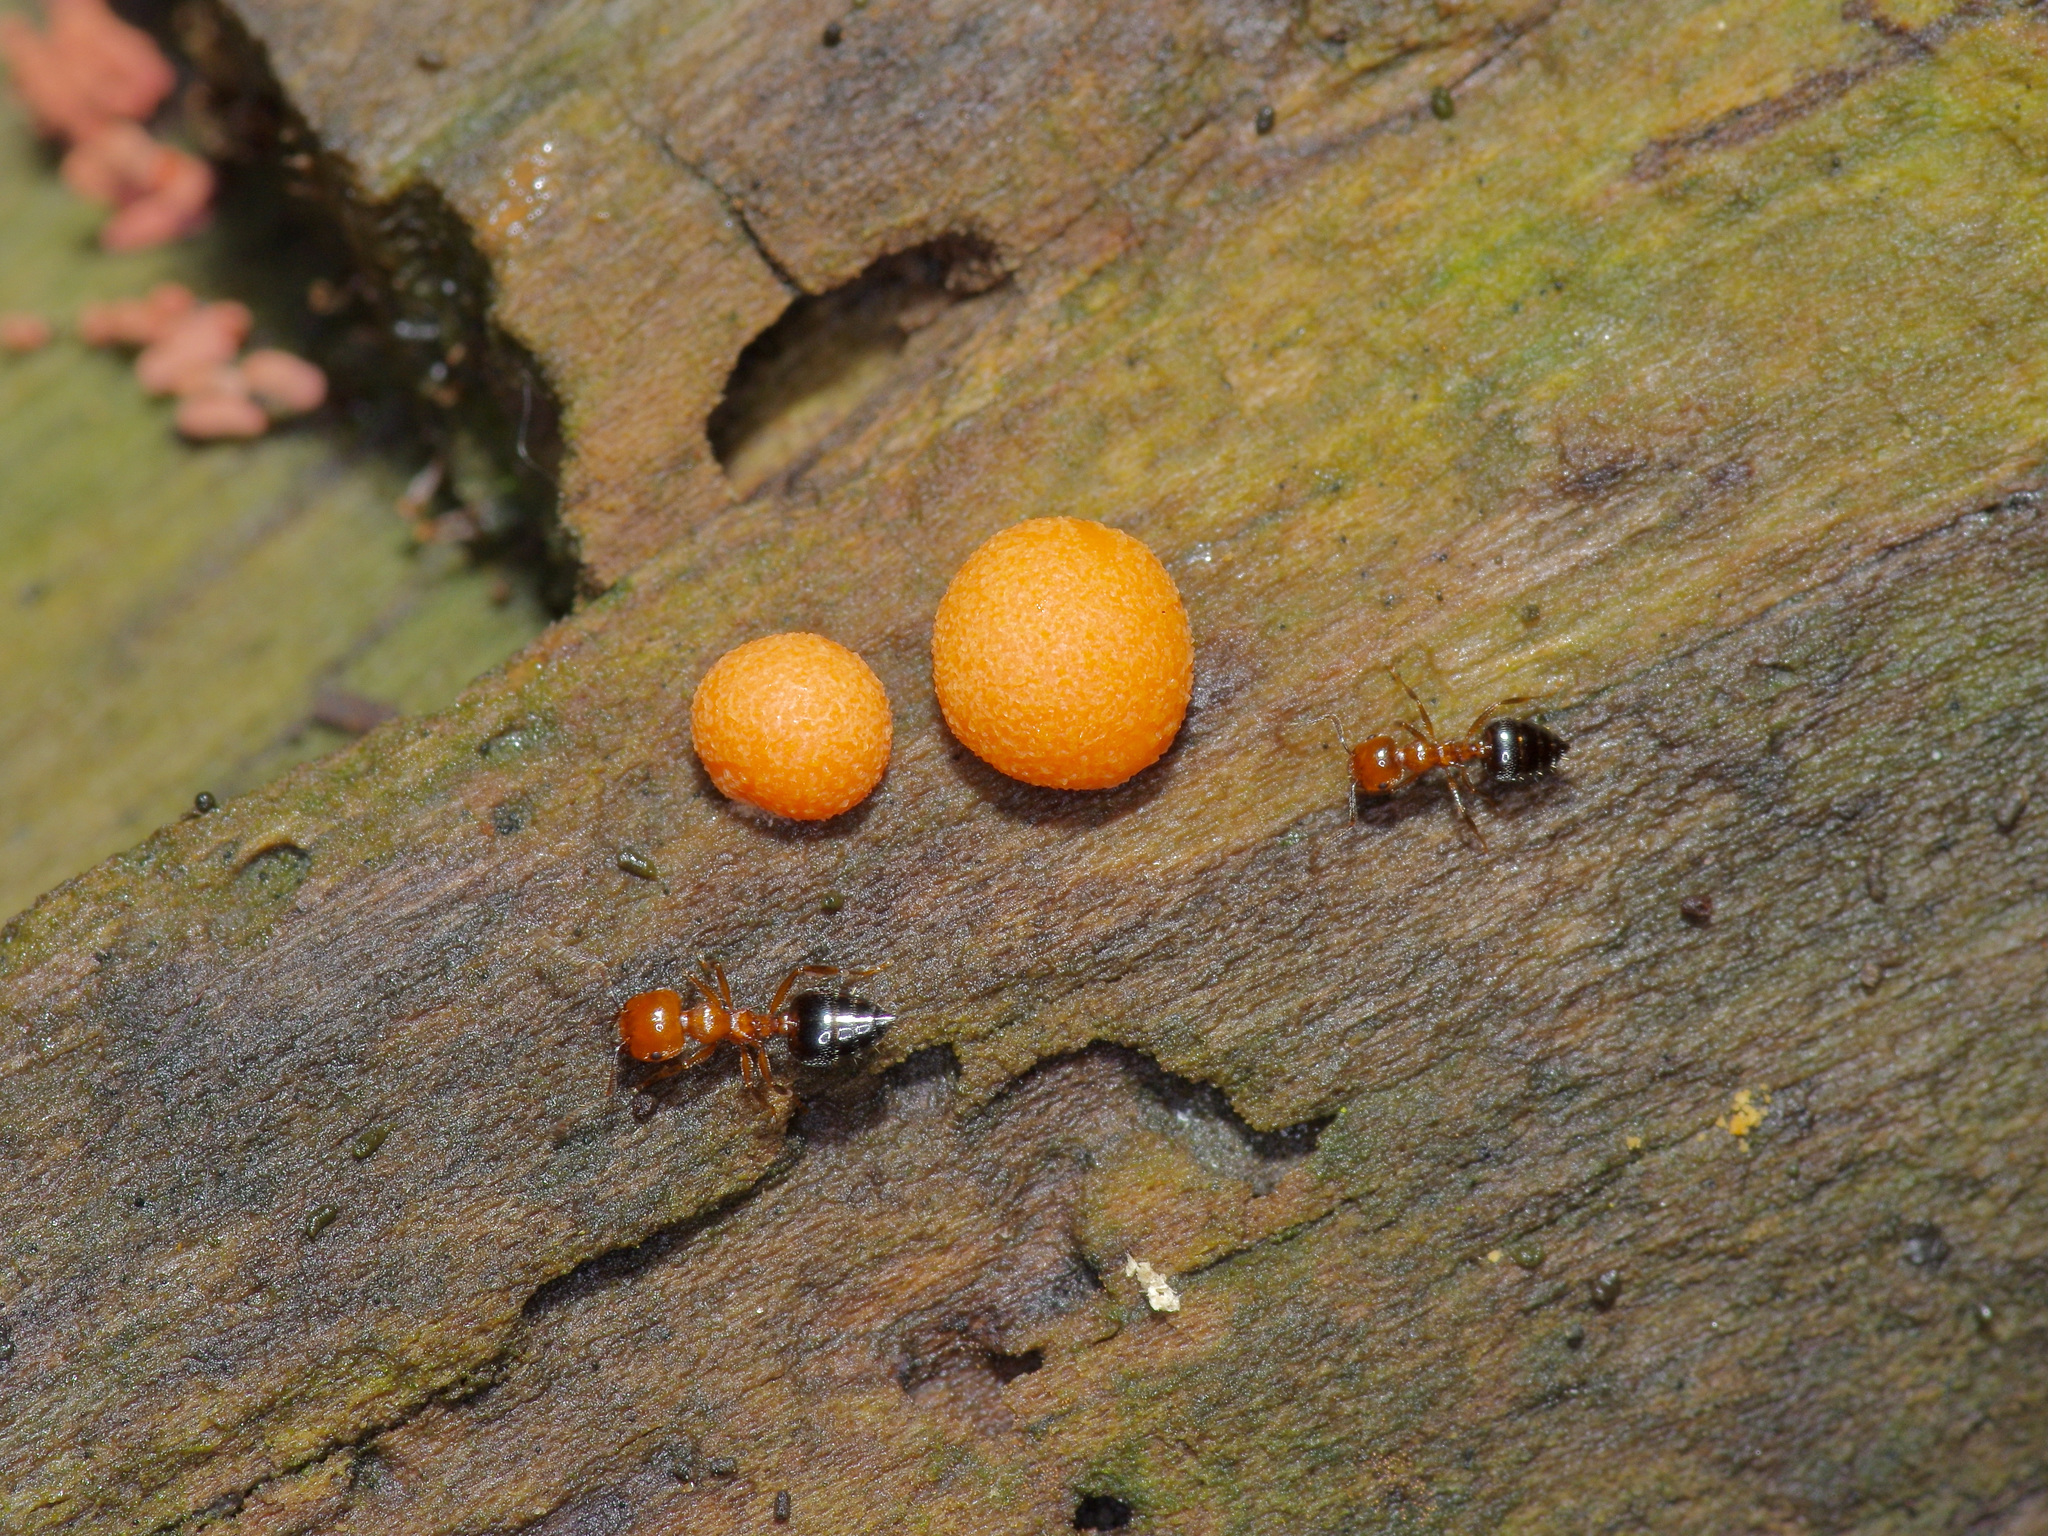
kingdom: Animalia
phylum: Arthropoda
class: Insecta
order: Hymenoptera
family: Formicidae
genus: Crematogaster
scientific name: Crematogaster laeviuscula
